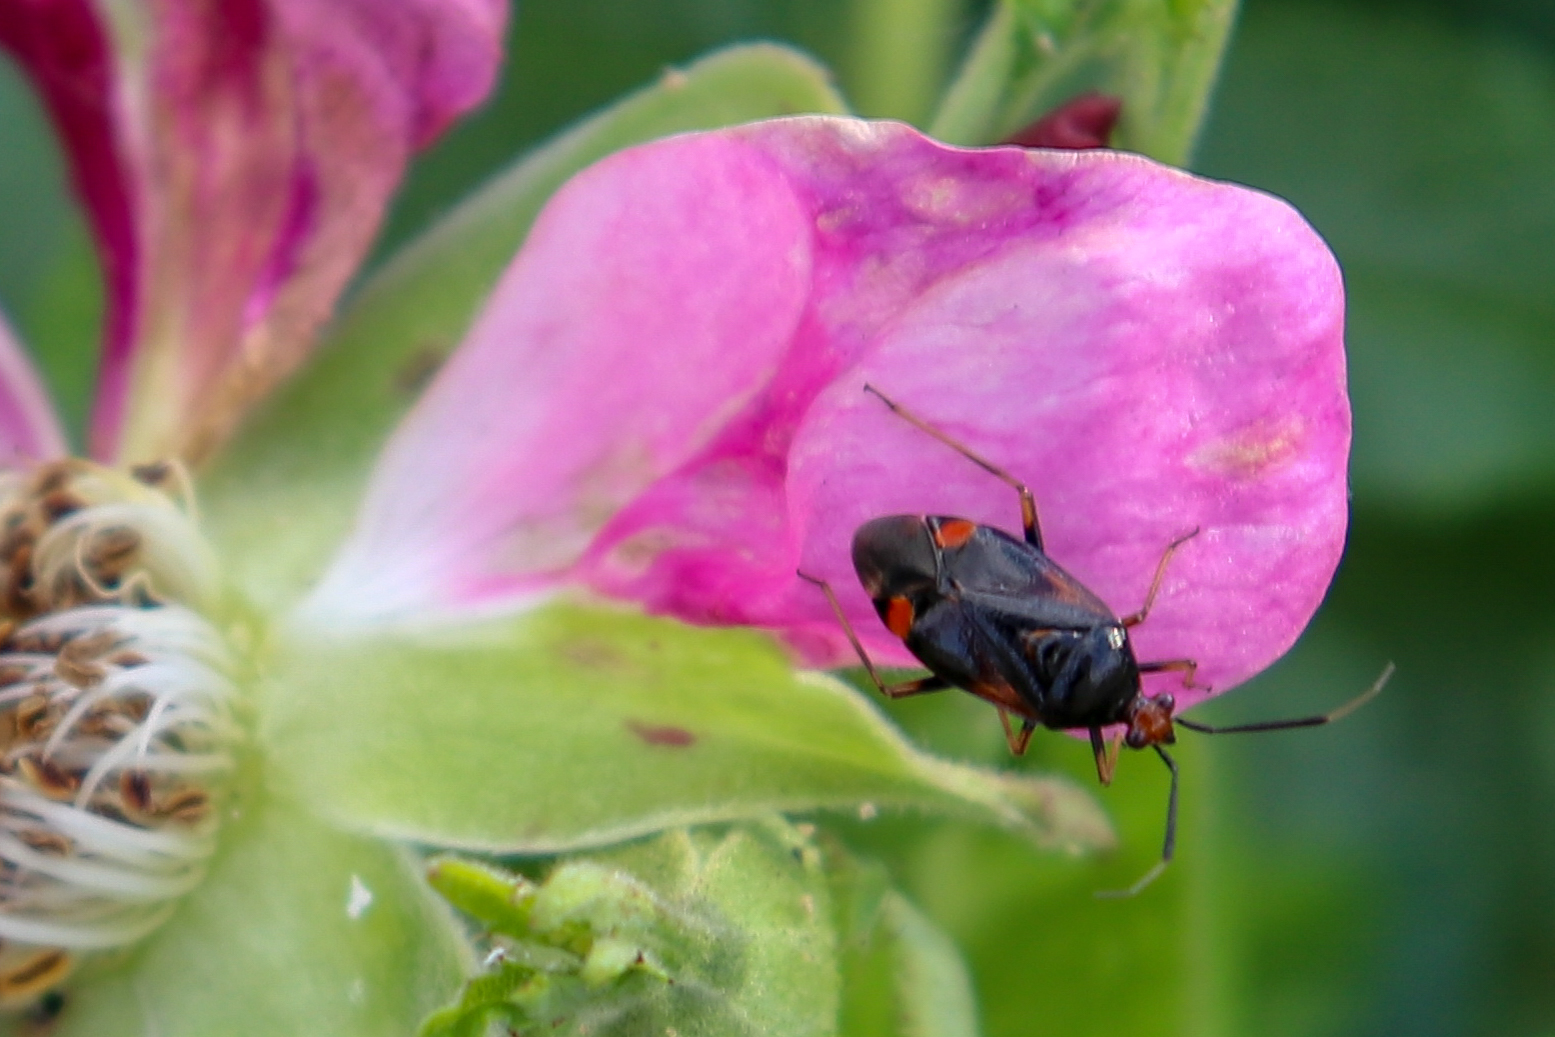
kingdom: Animalia
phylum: Arthropoda
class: Insecta
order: Hemiptera
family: Miridae
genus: Deraeocoris
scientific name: Deraeocoris ruber
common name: Plant bug
